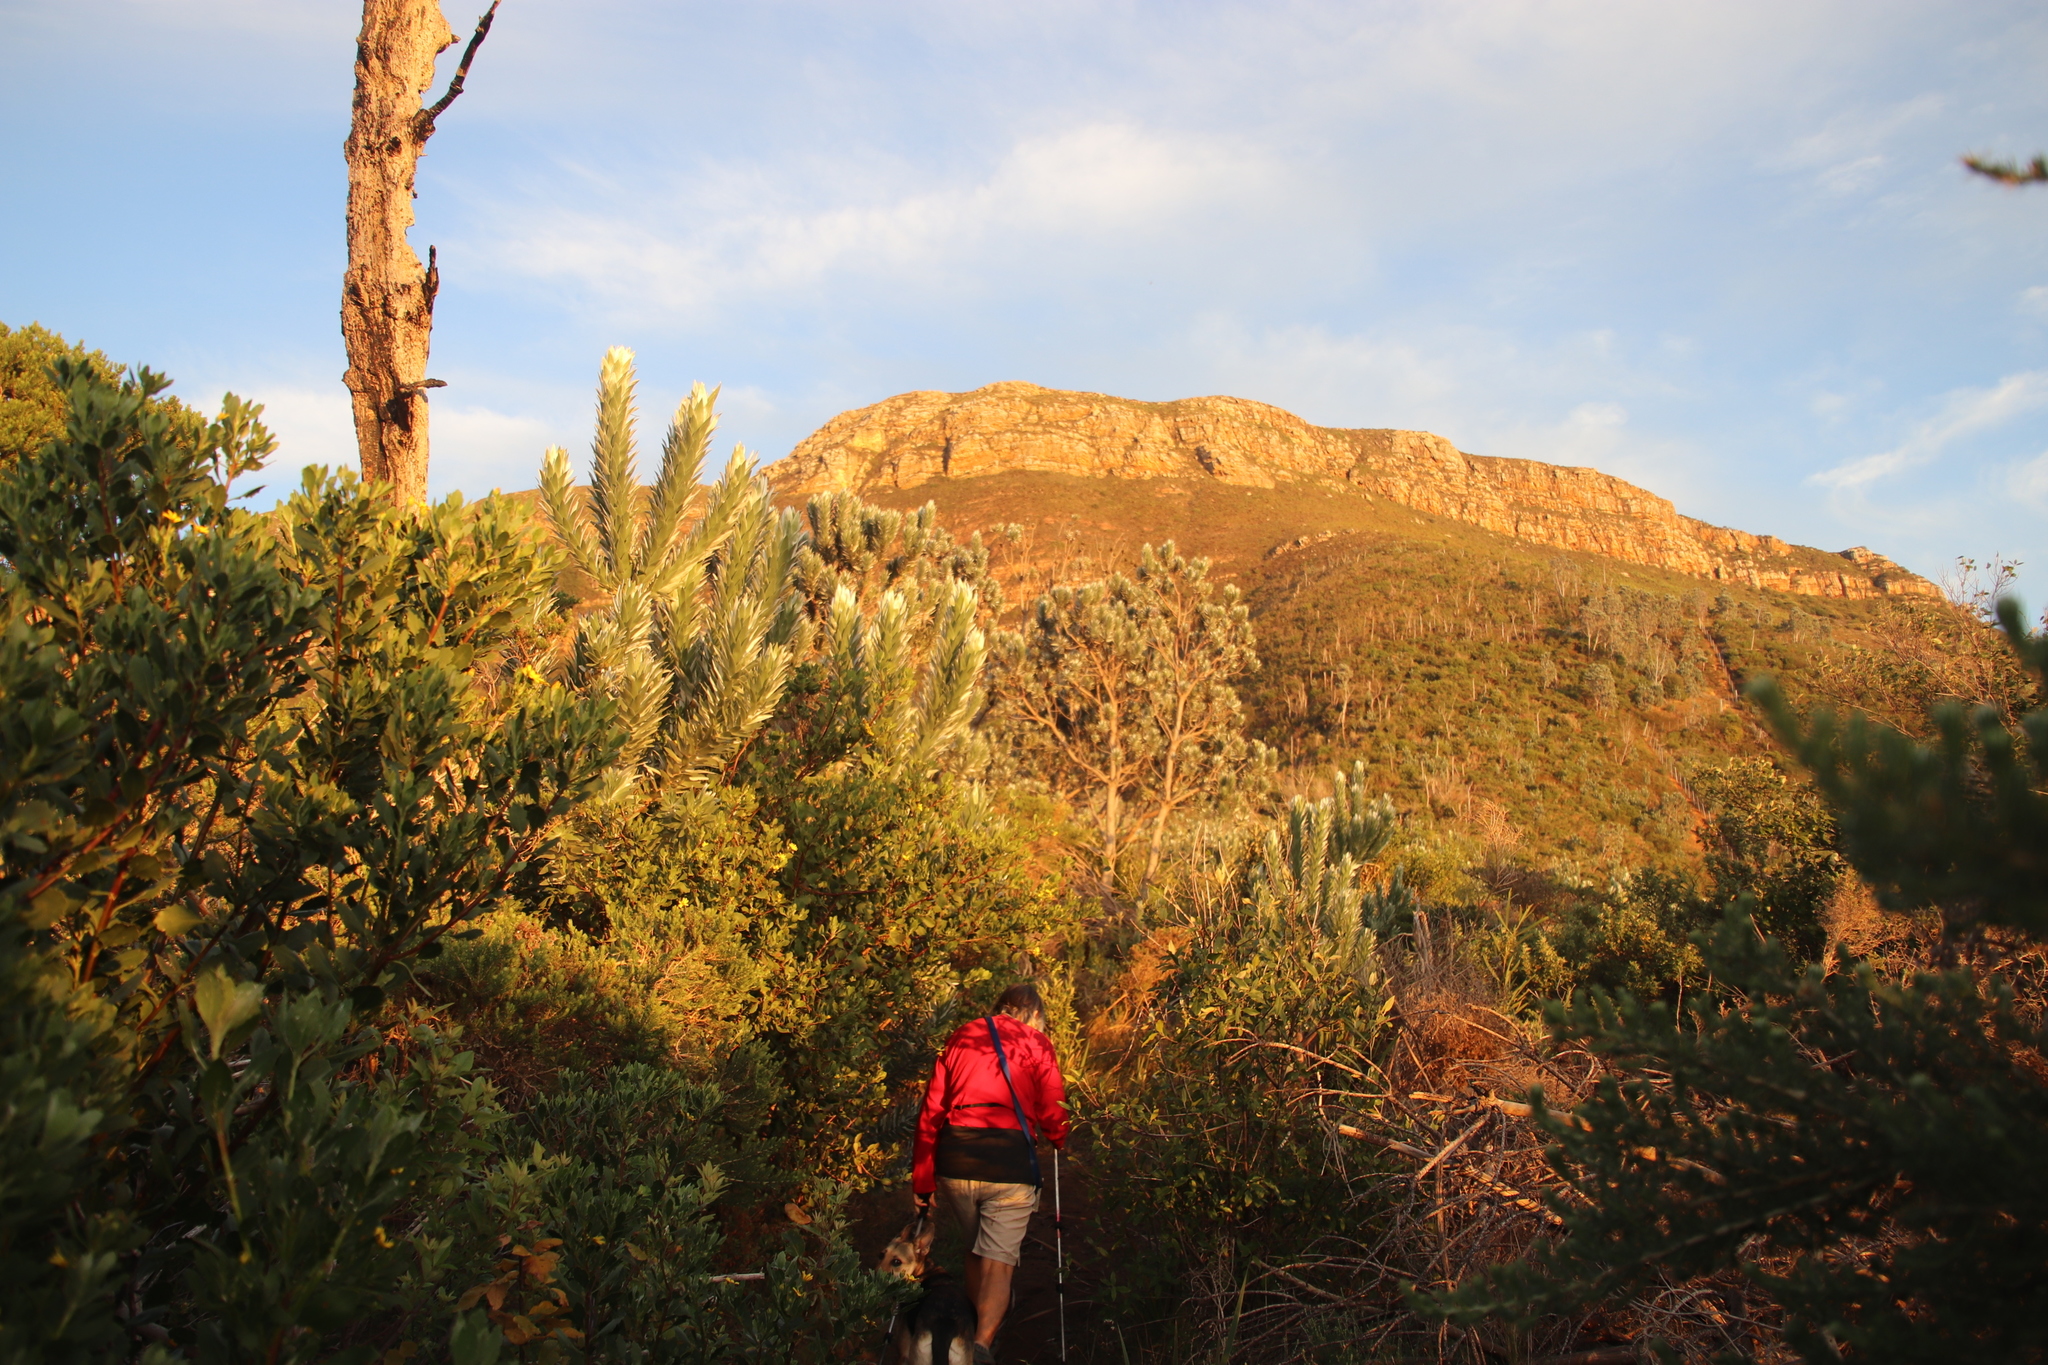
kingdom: Plantae
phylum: Tracheophyta
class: Magnoliopsida
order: Proteales
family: Proteaceae
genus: Leucadendron
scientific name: Leucadendron argenteum
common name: Cape silver tree
